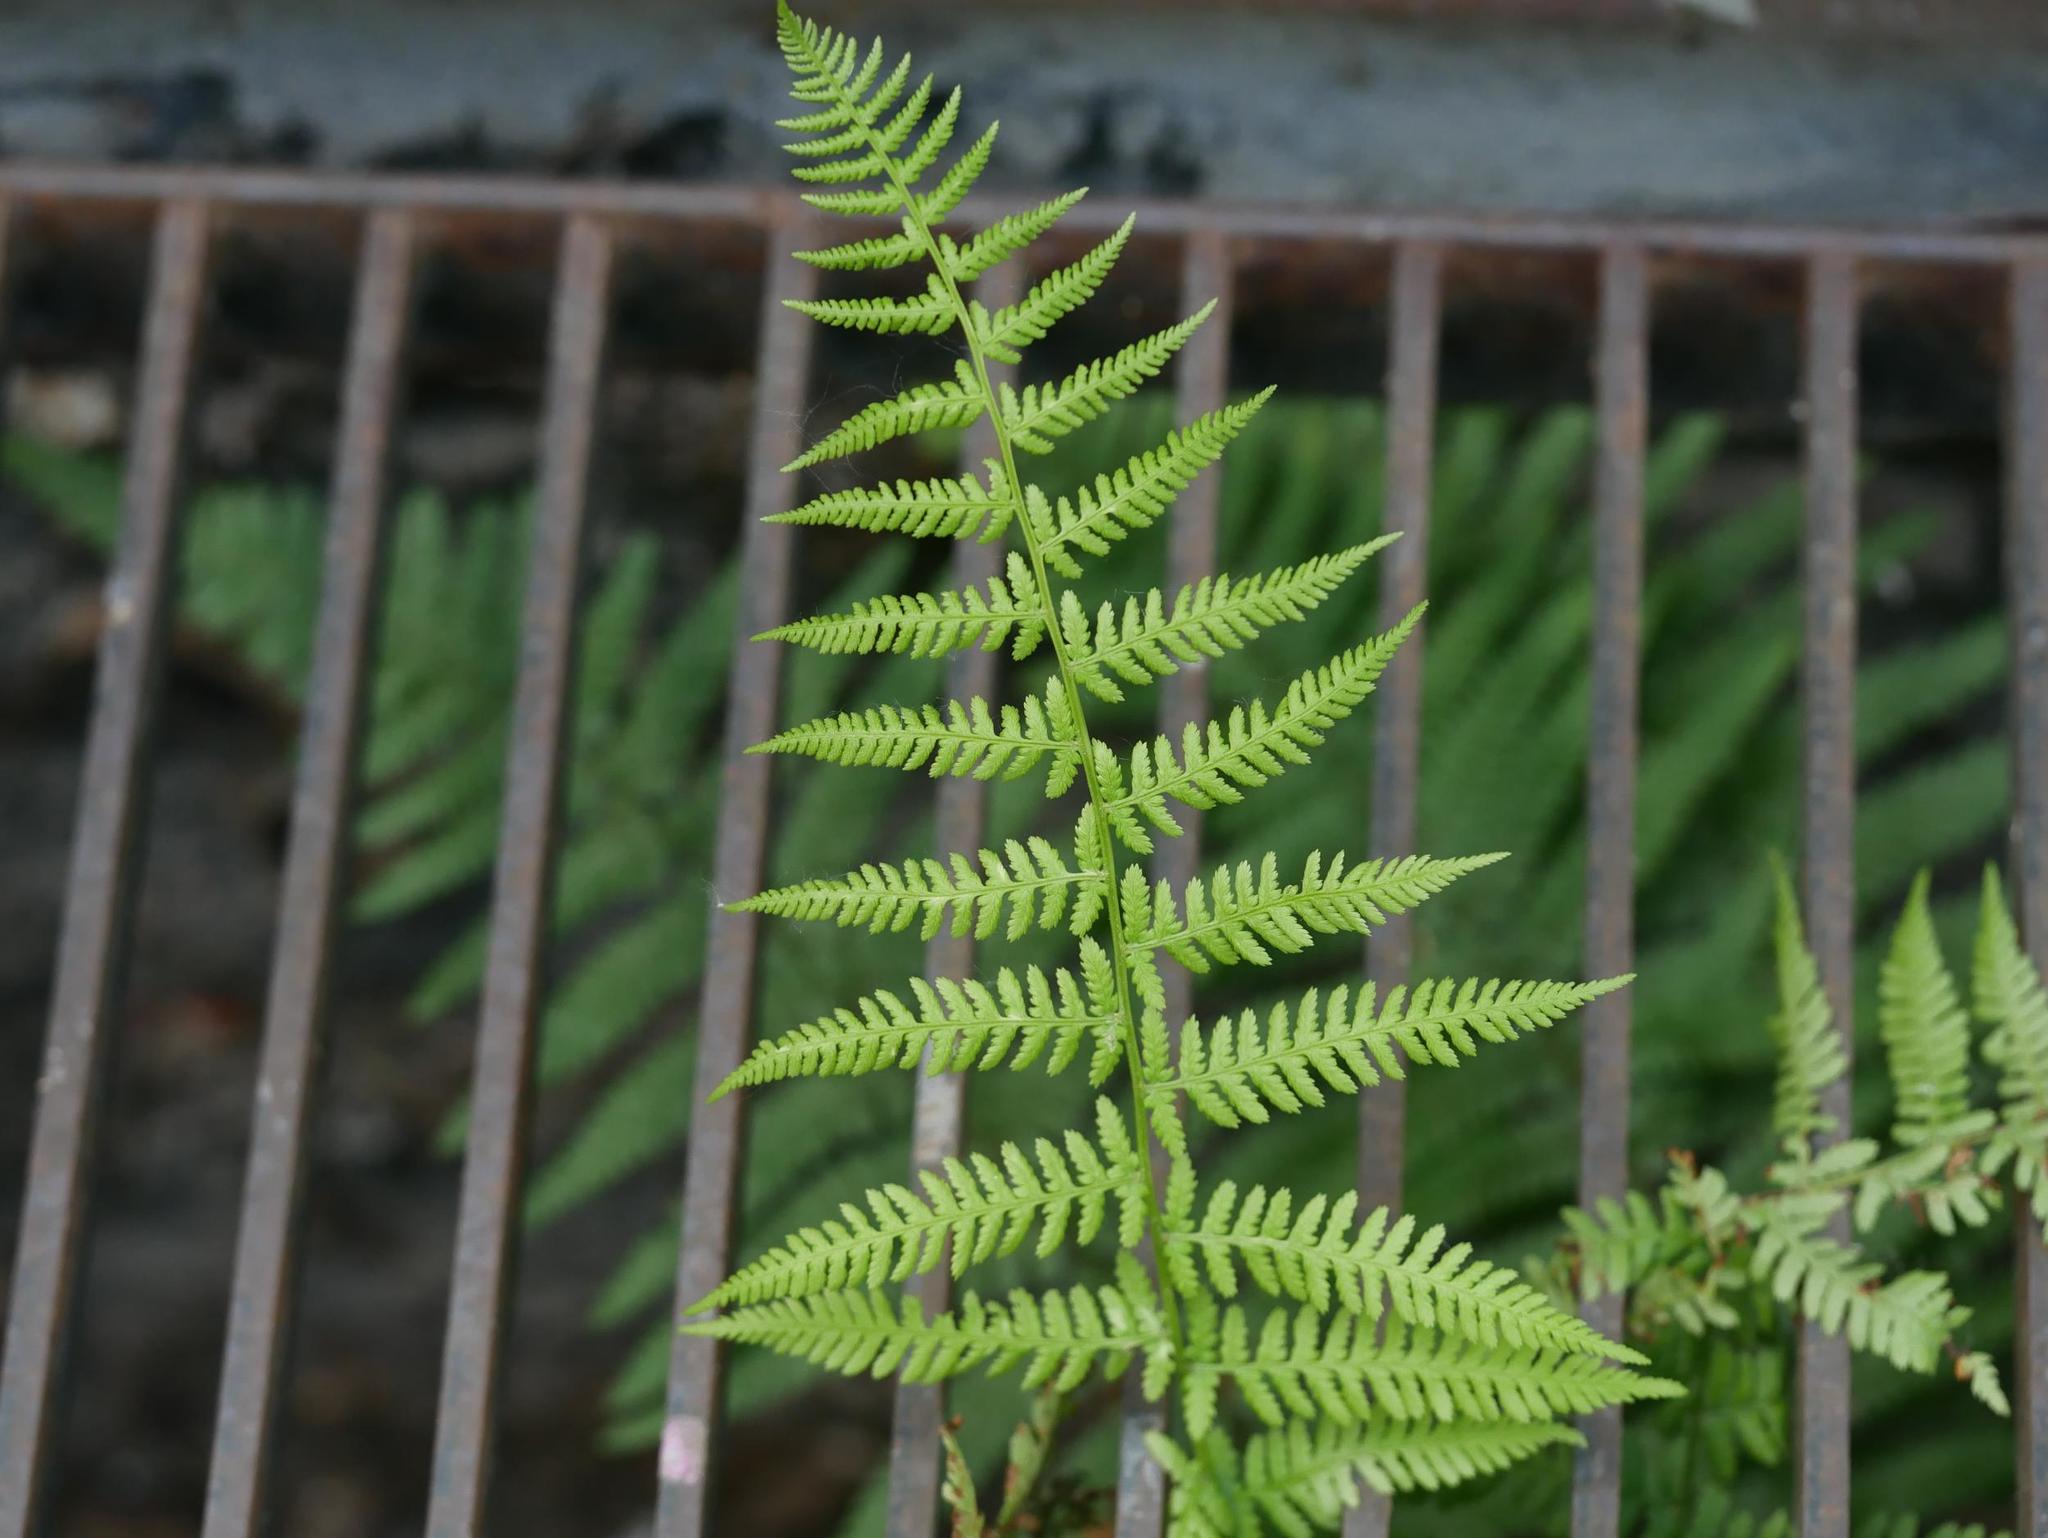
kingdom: Plantae
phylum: Tracheophyta
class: Polypodiopsida
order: Polypodiales
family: Dryopteridaceae
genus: Dryopteris
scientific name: Dryopteris filix-mas
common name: Male fern
